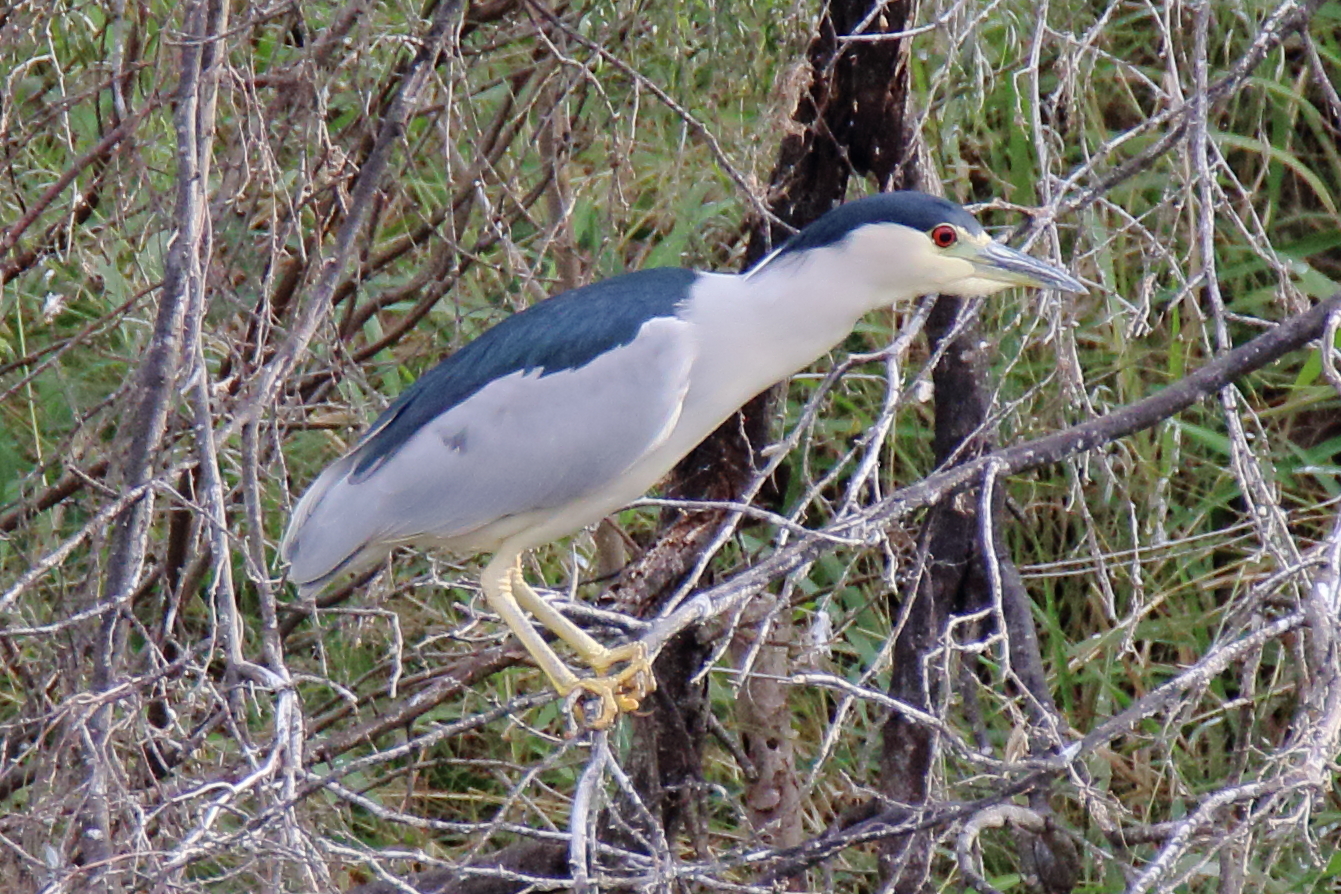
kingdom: Animalia
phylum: Chordata
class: Aves
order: Pelecaniformes
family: Ardeidae
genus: Nycticorax
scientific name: Nycticorax nycticorax
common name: Black-crowned night heron
